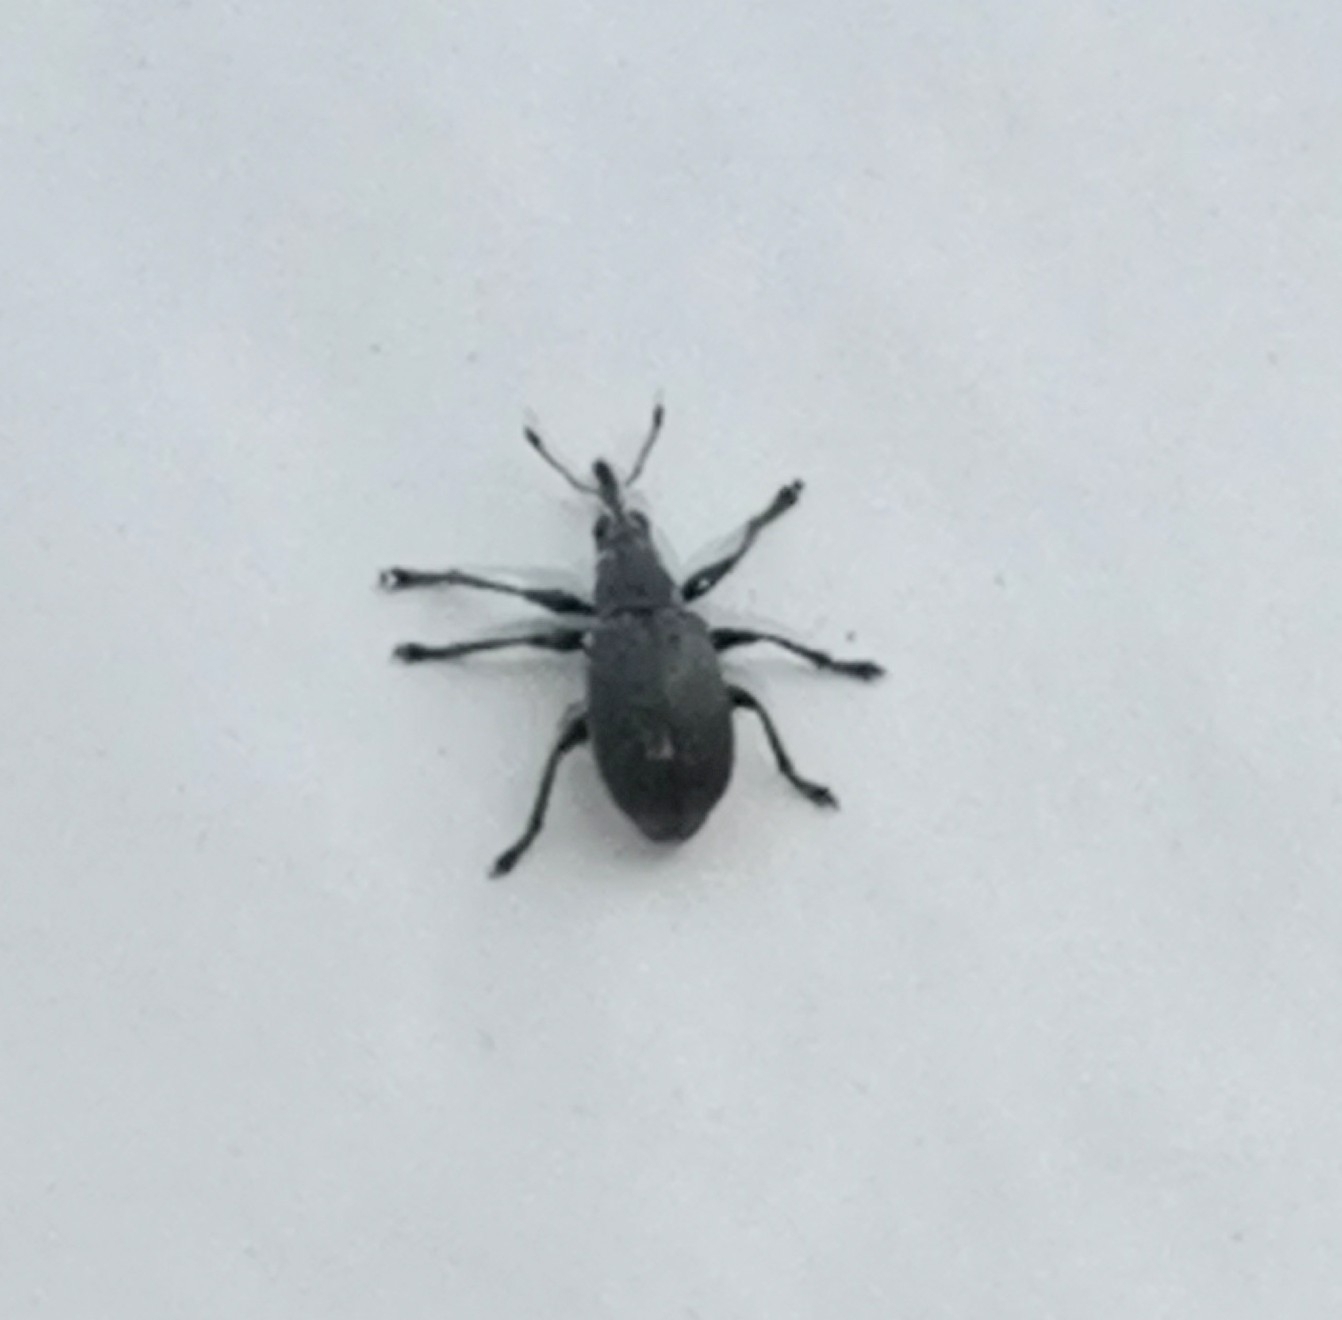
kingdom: Animalia
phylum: Arthropoda
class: Insecta
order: Coleoptera
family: Brentidae
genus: Betulapion
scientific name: Betulapion simile
